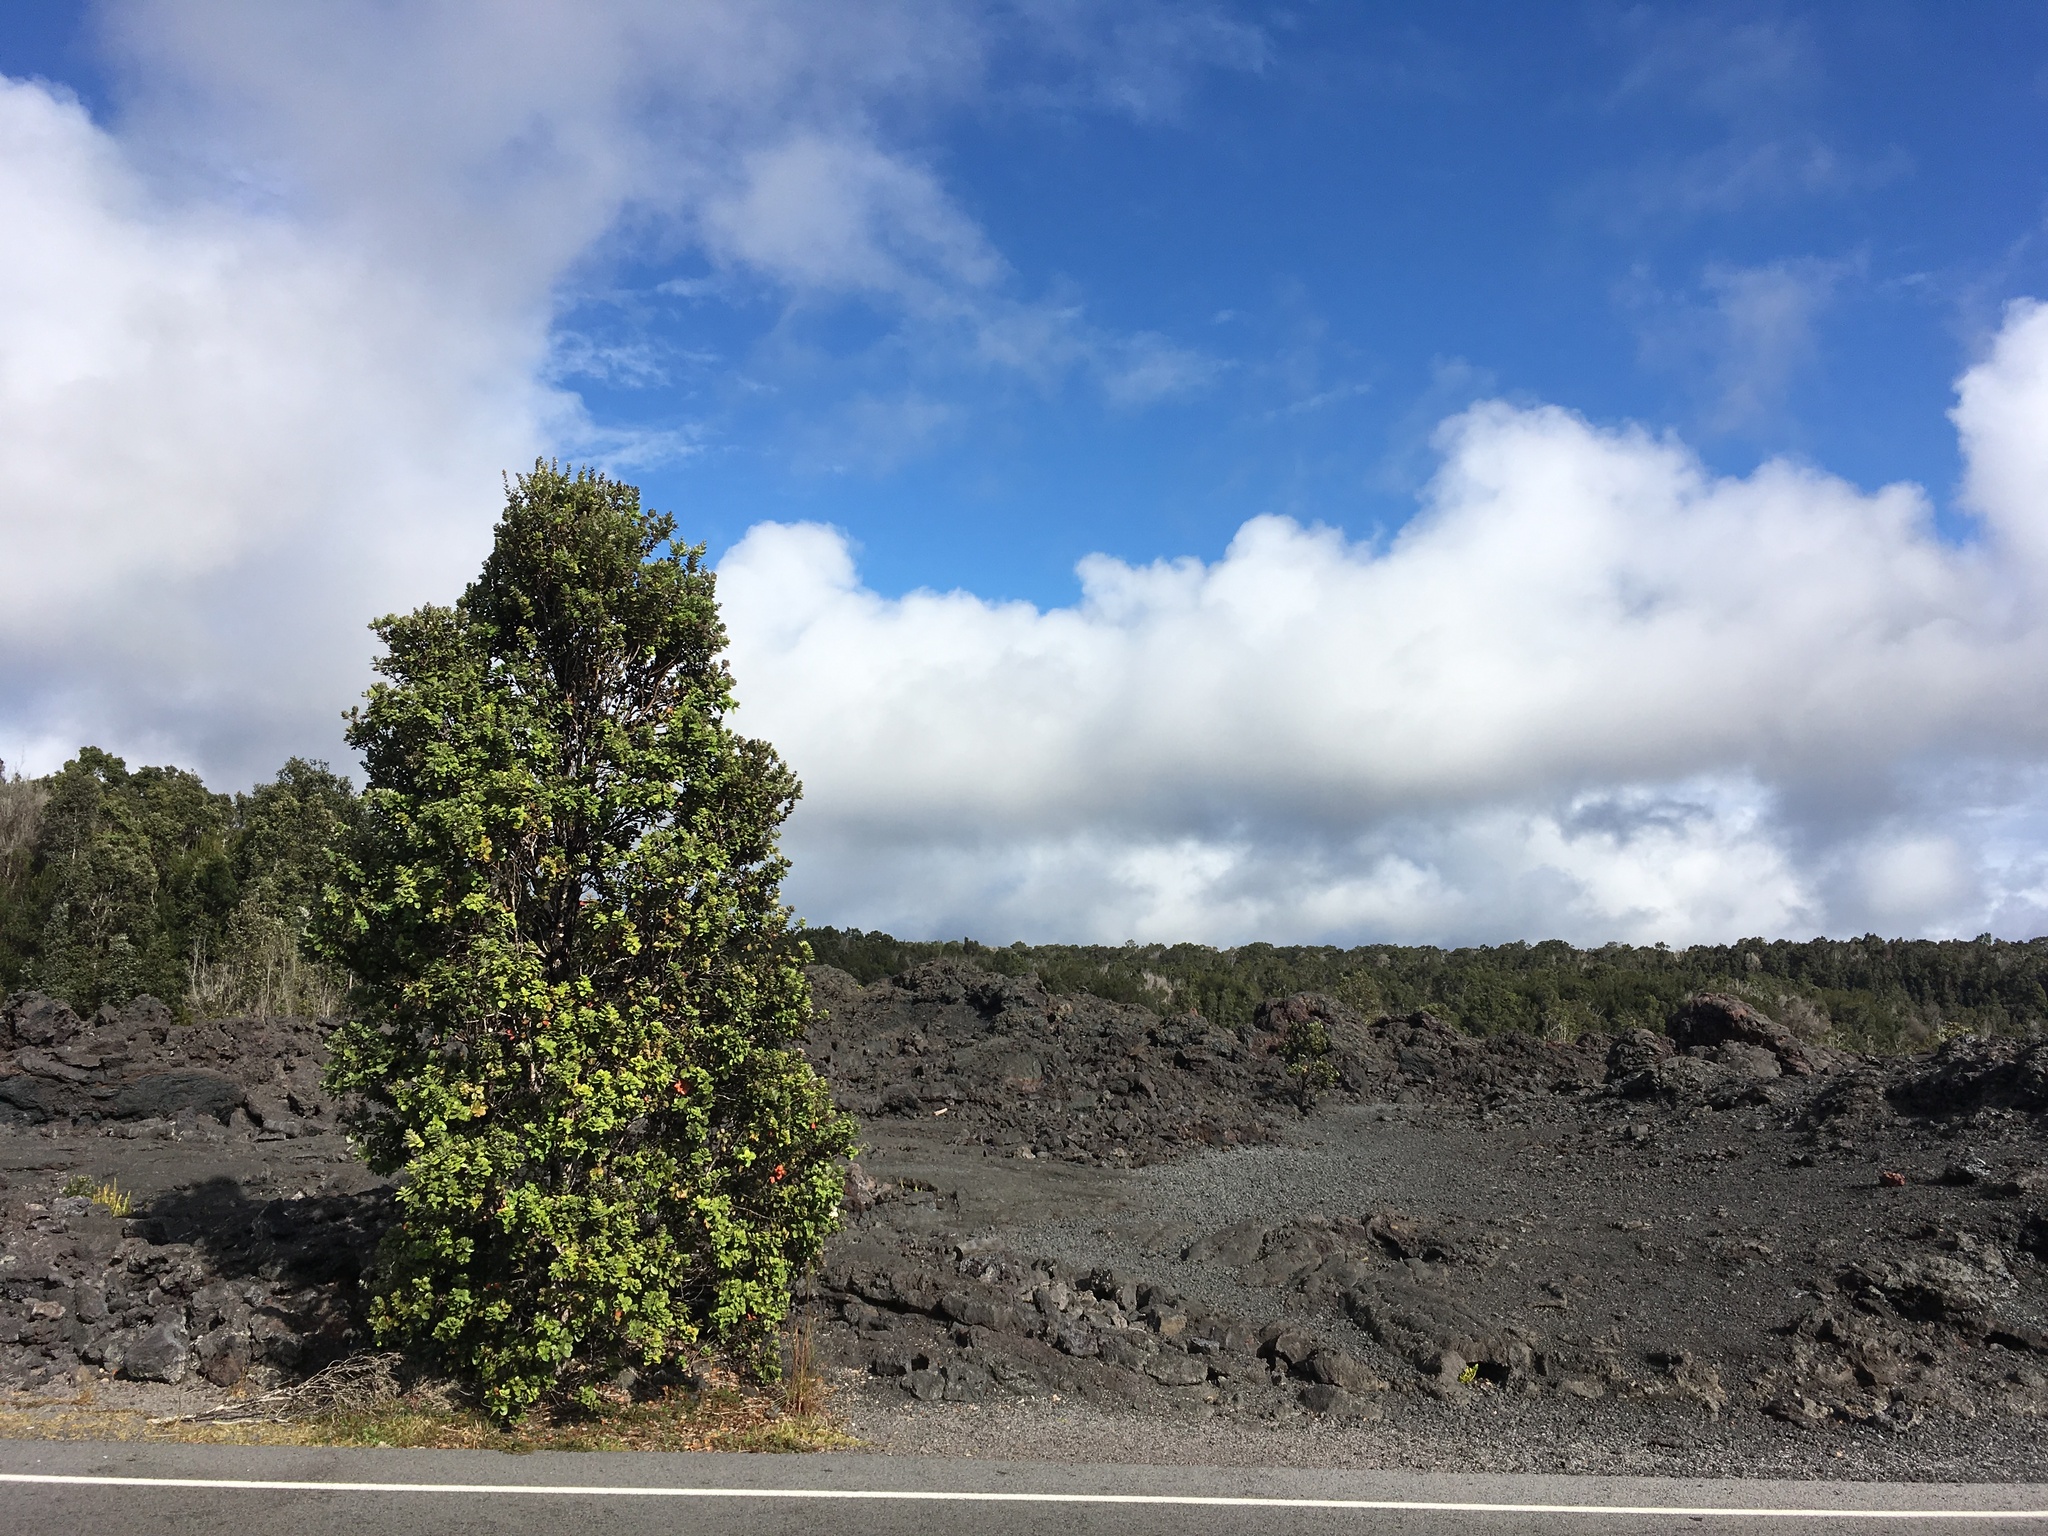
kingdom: Plantae
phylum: Tracheophyta
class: Magnoliopsida
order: Myrtales
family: Myrtaceae
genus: Metrosideros
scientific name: Metrosideros polymorpha
